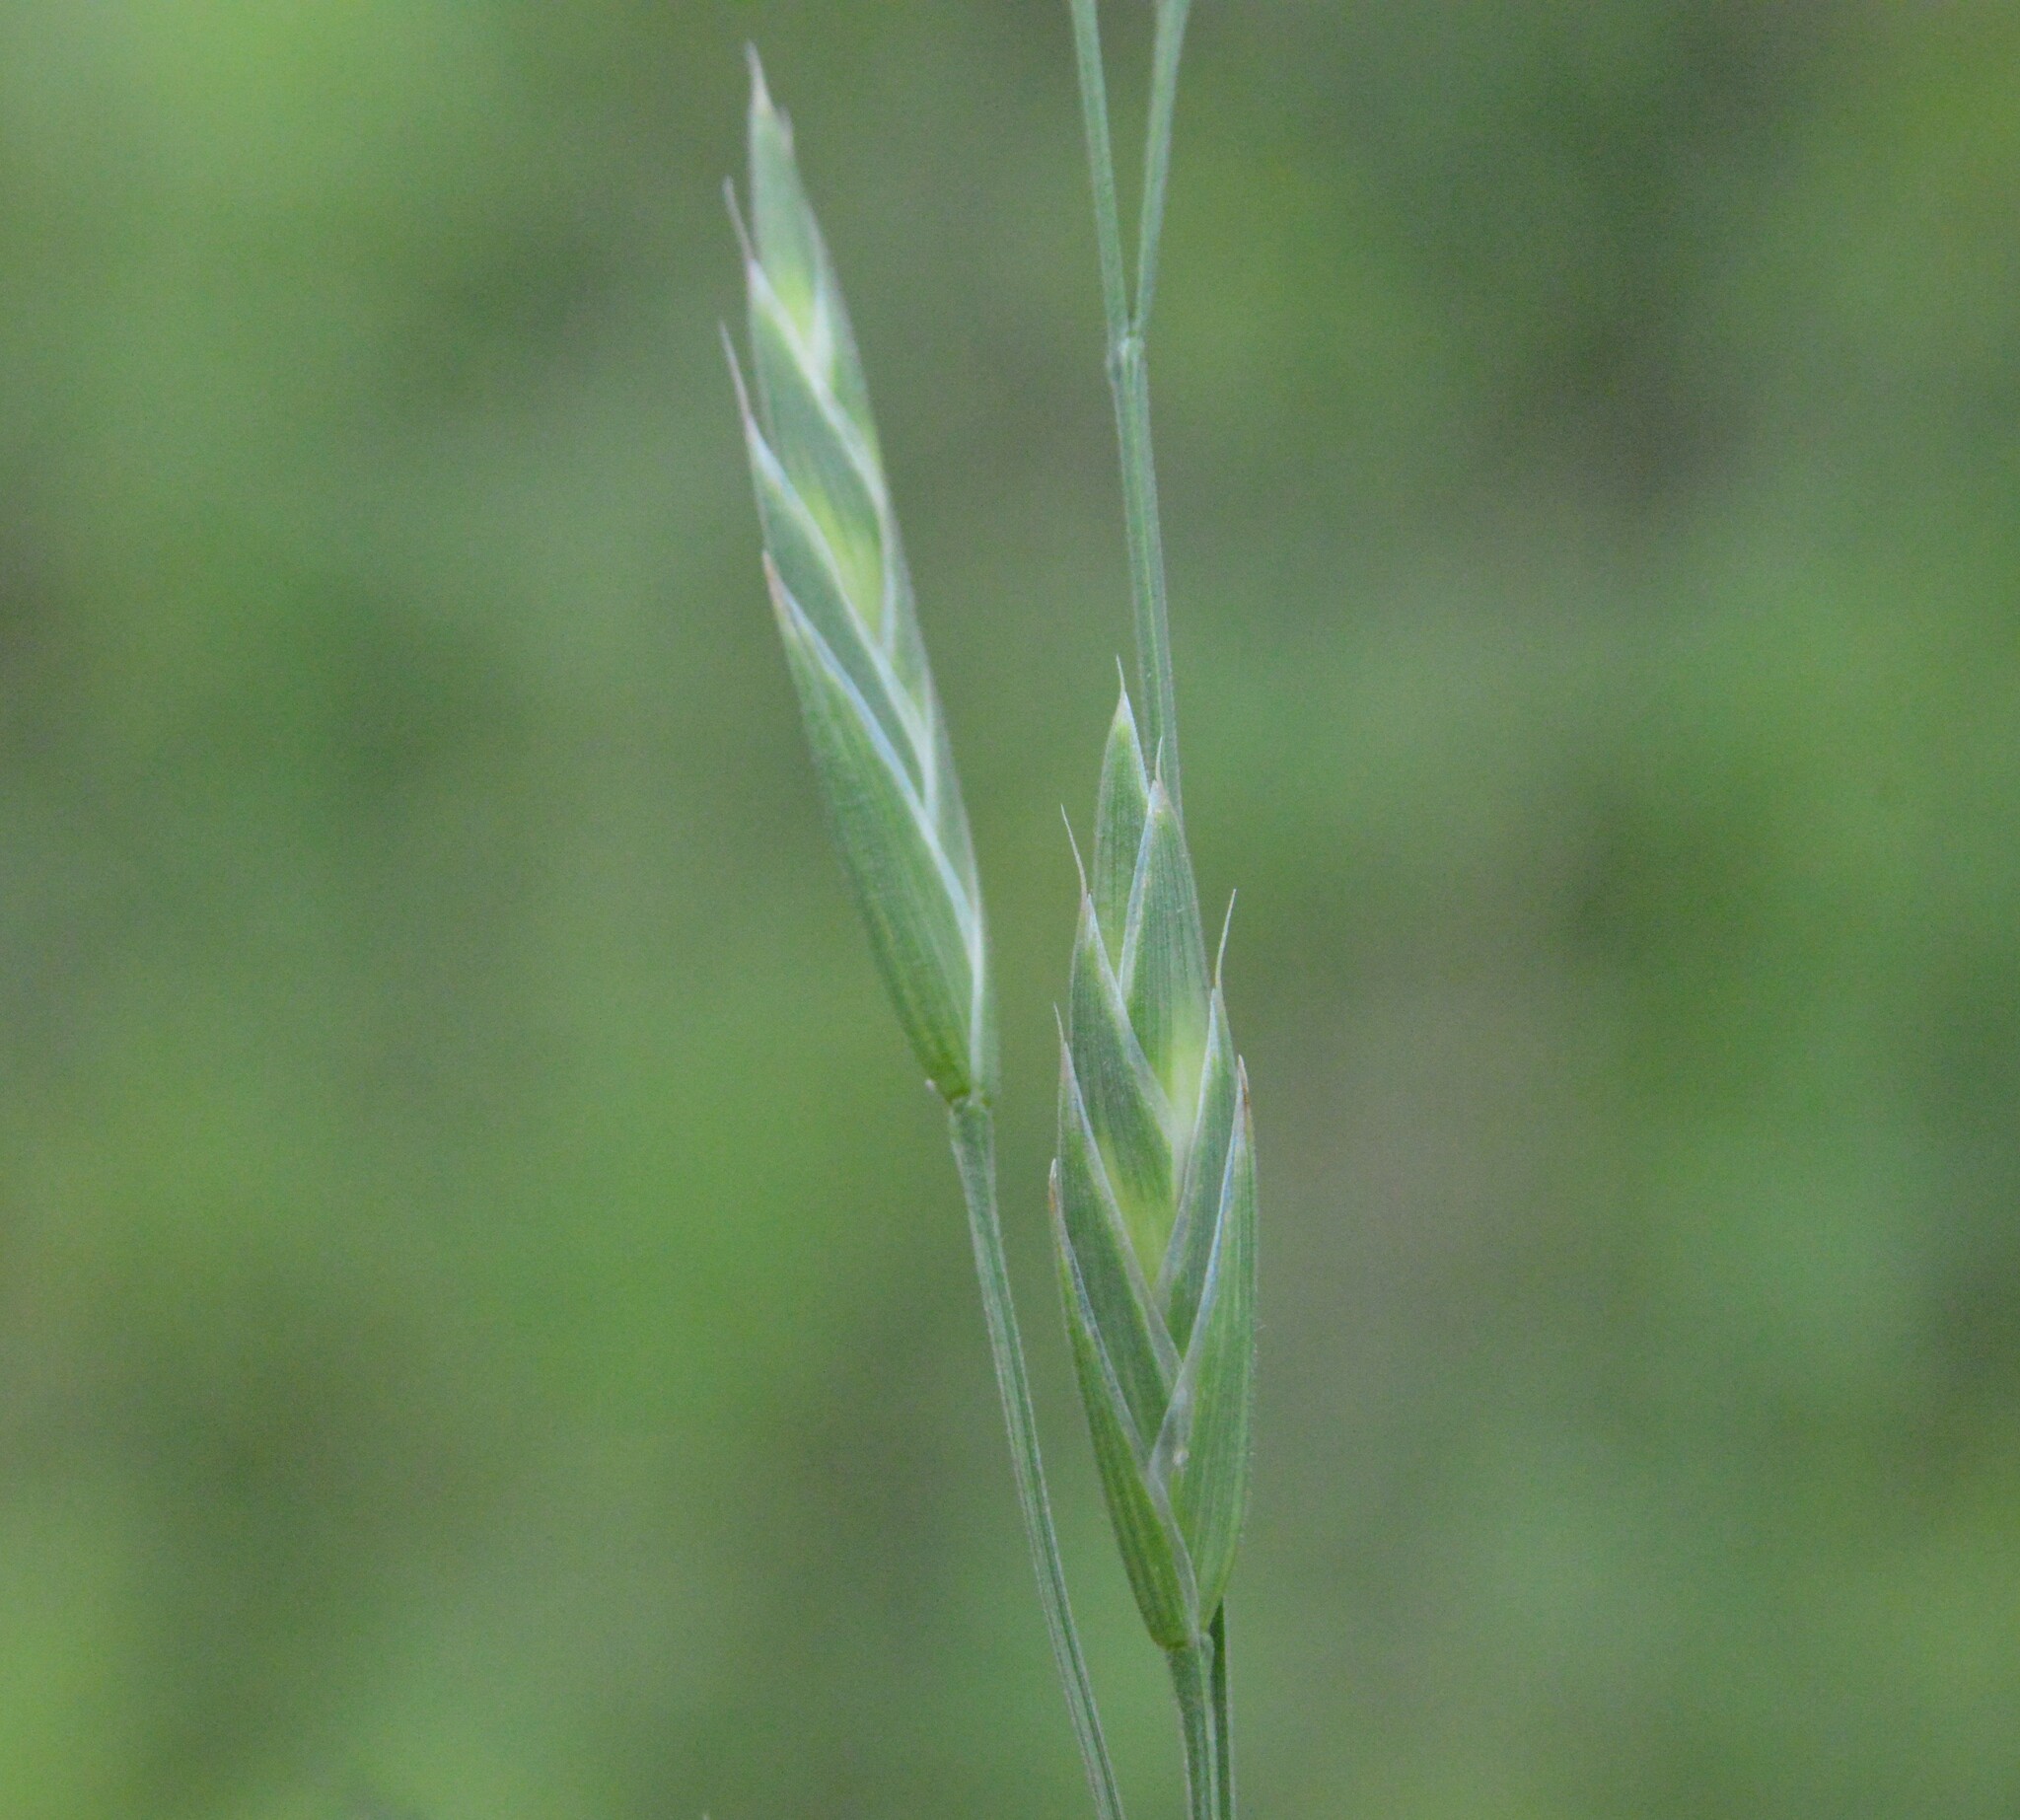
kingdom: Plantae
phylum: Tracheophyta
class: Liliopsida
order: Poales
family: Poaceae
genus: Bromus
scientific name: Bromus catharticus
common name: Rescuegrass
